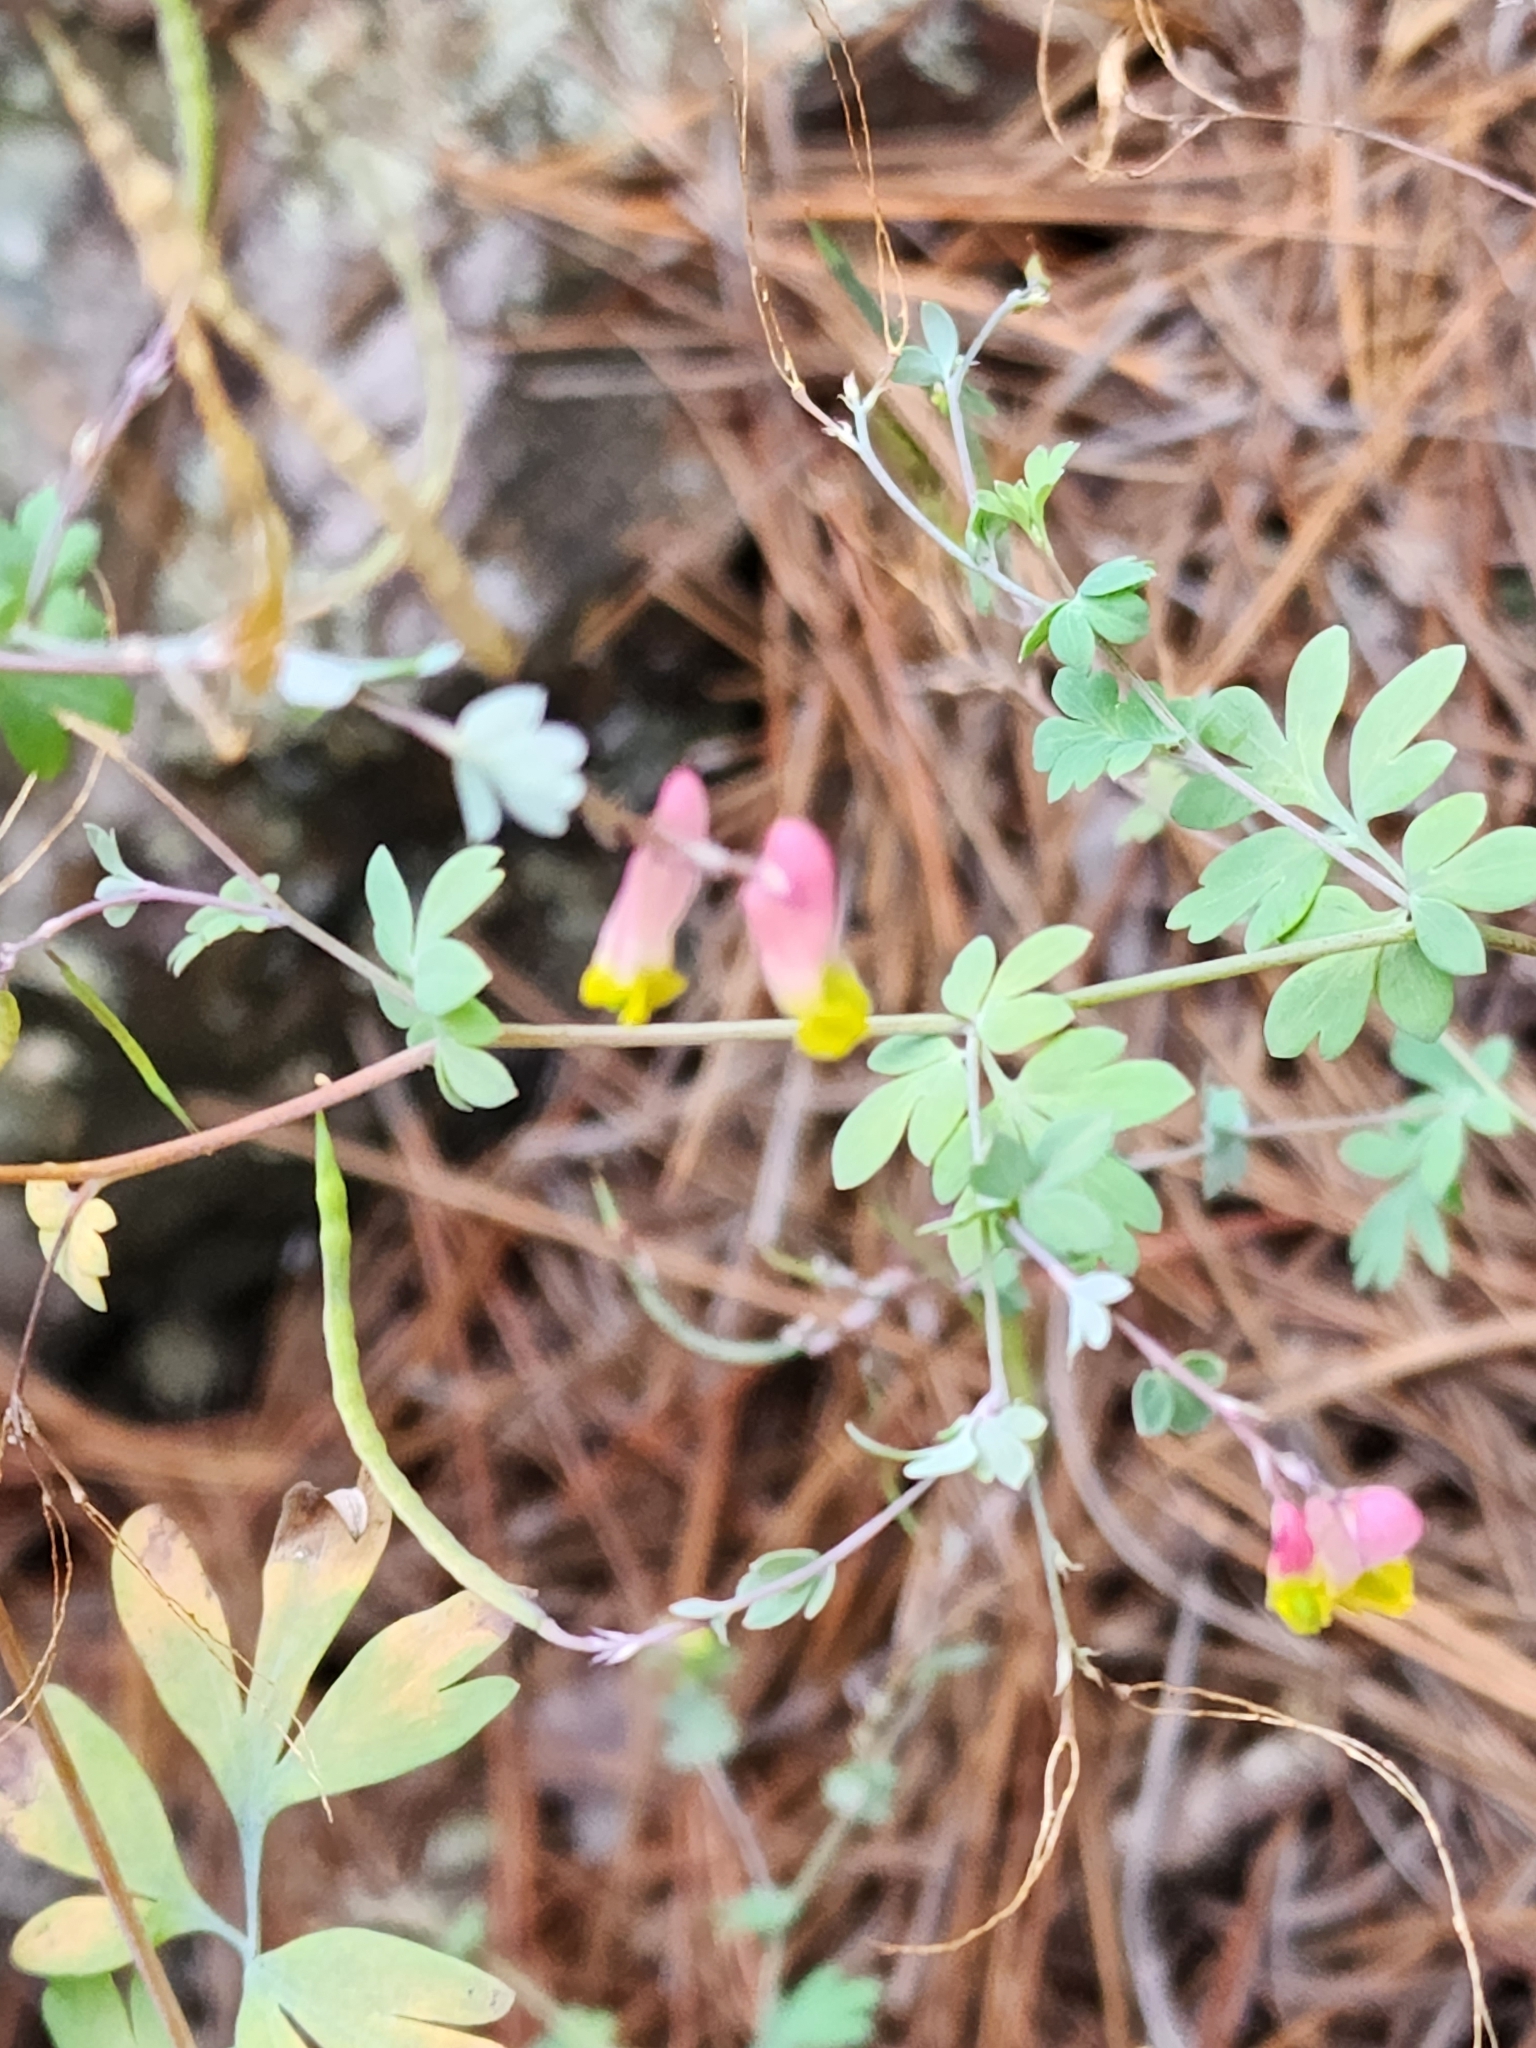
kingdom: Plantae
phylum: Tracheophyta
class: Magnoliopsida
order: Ranunculales
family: Papaveraceae
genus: Capnoides
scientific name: Capnoides sempervirens
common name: Rock harlequin
